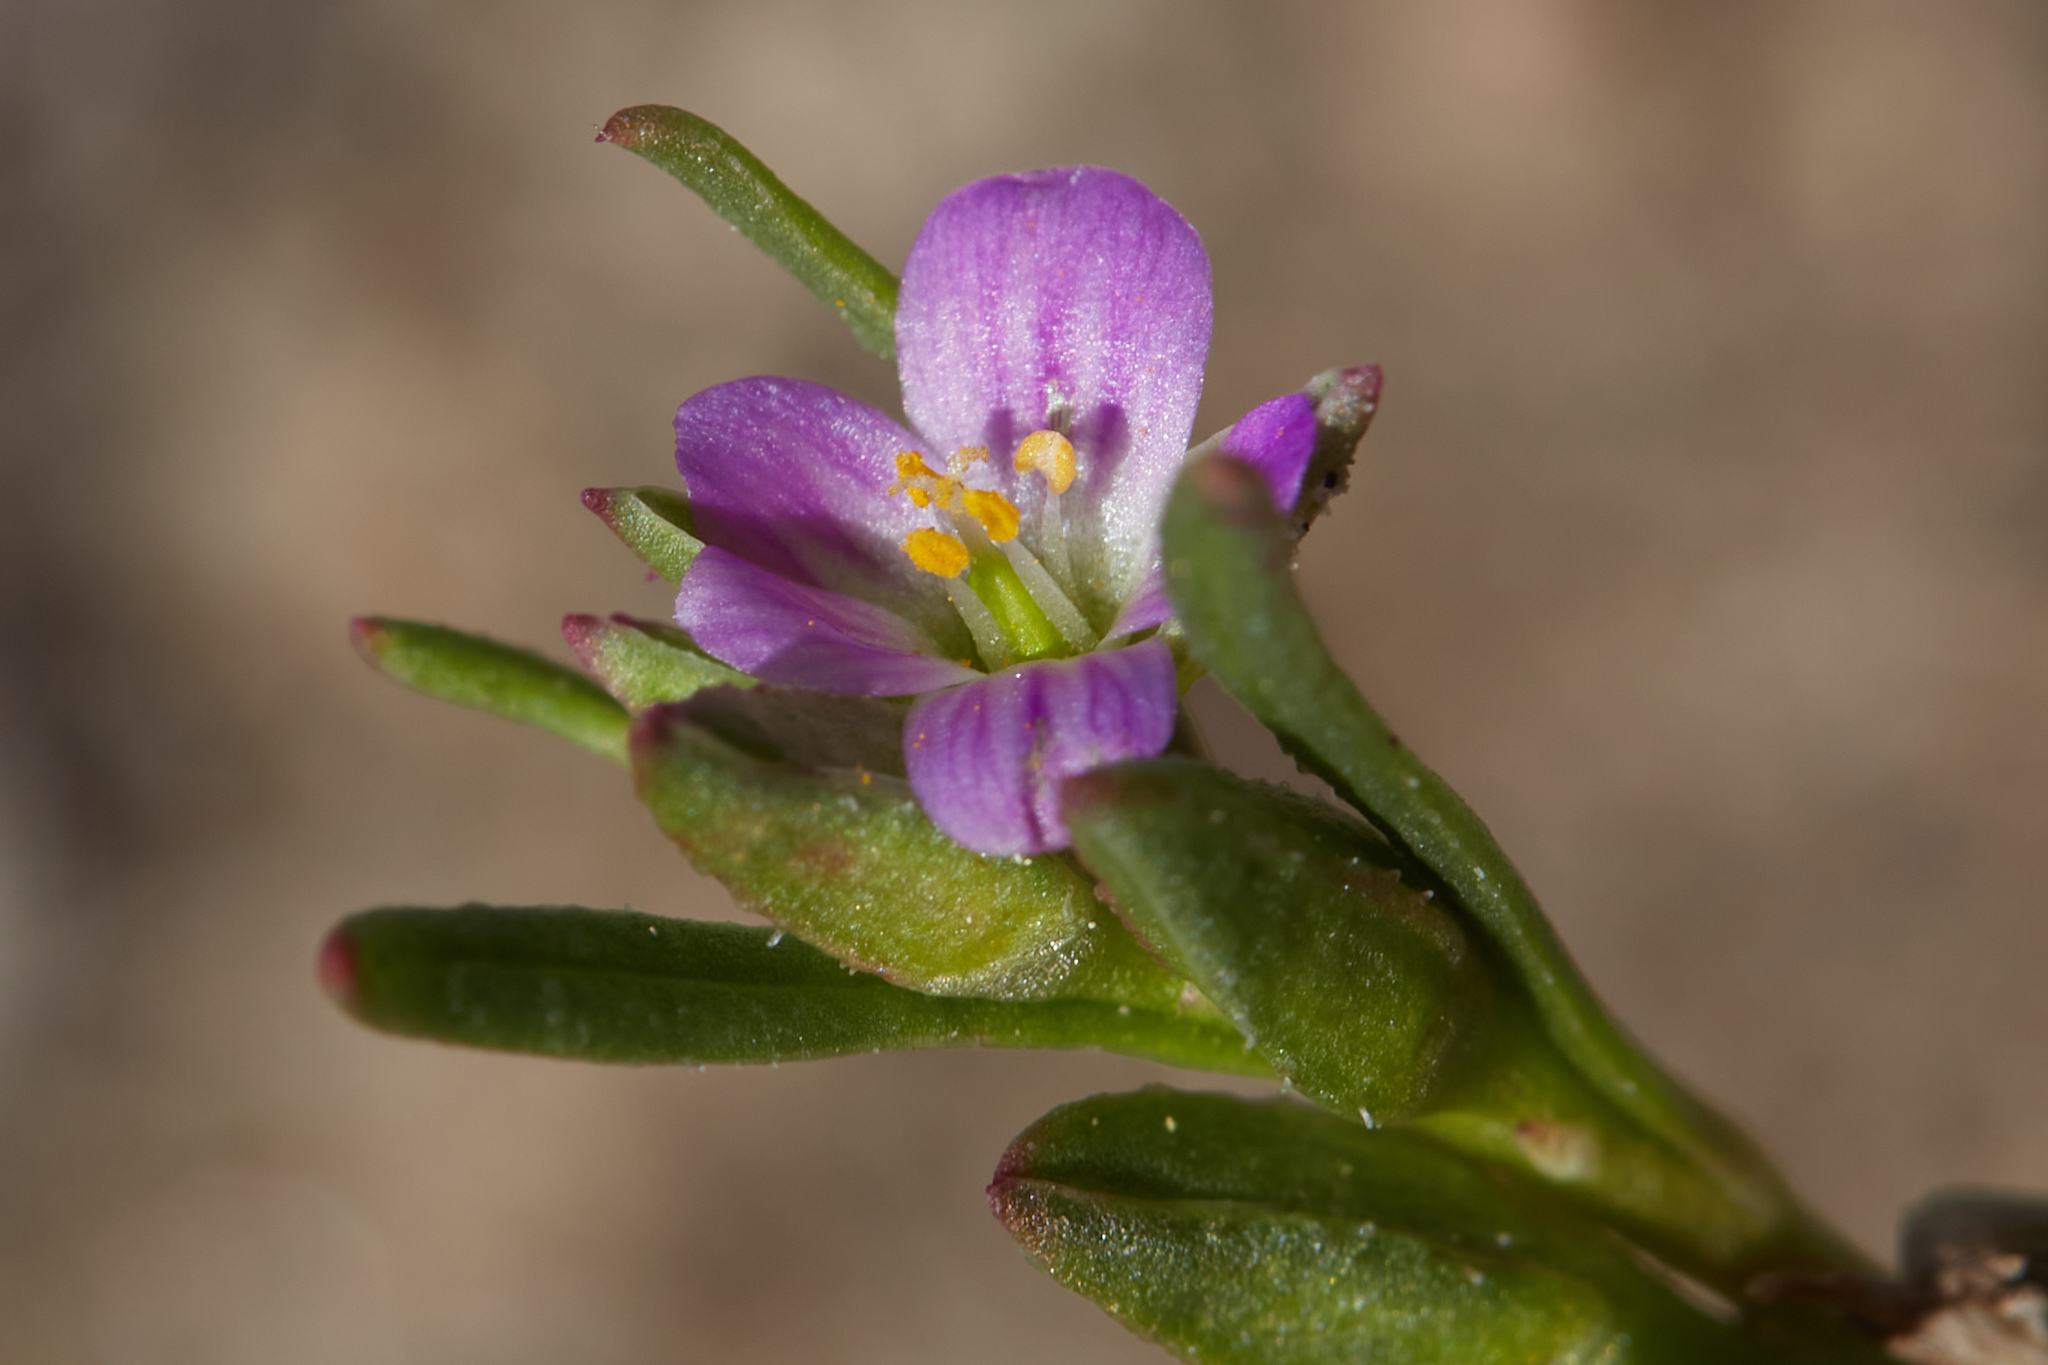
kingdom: Plantae
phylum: Tracheophyta
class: Magnoliopsida
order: Caryophyllales
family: Montiaceae
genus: Calandrinia
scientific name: Calandrinia menziesii
